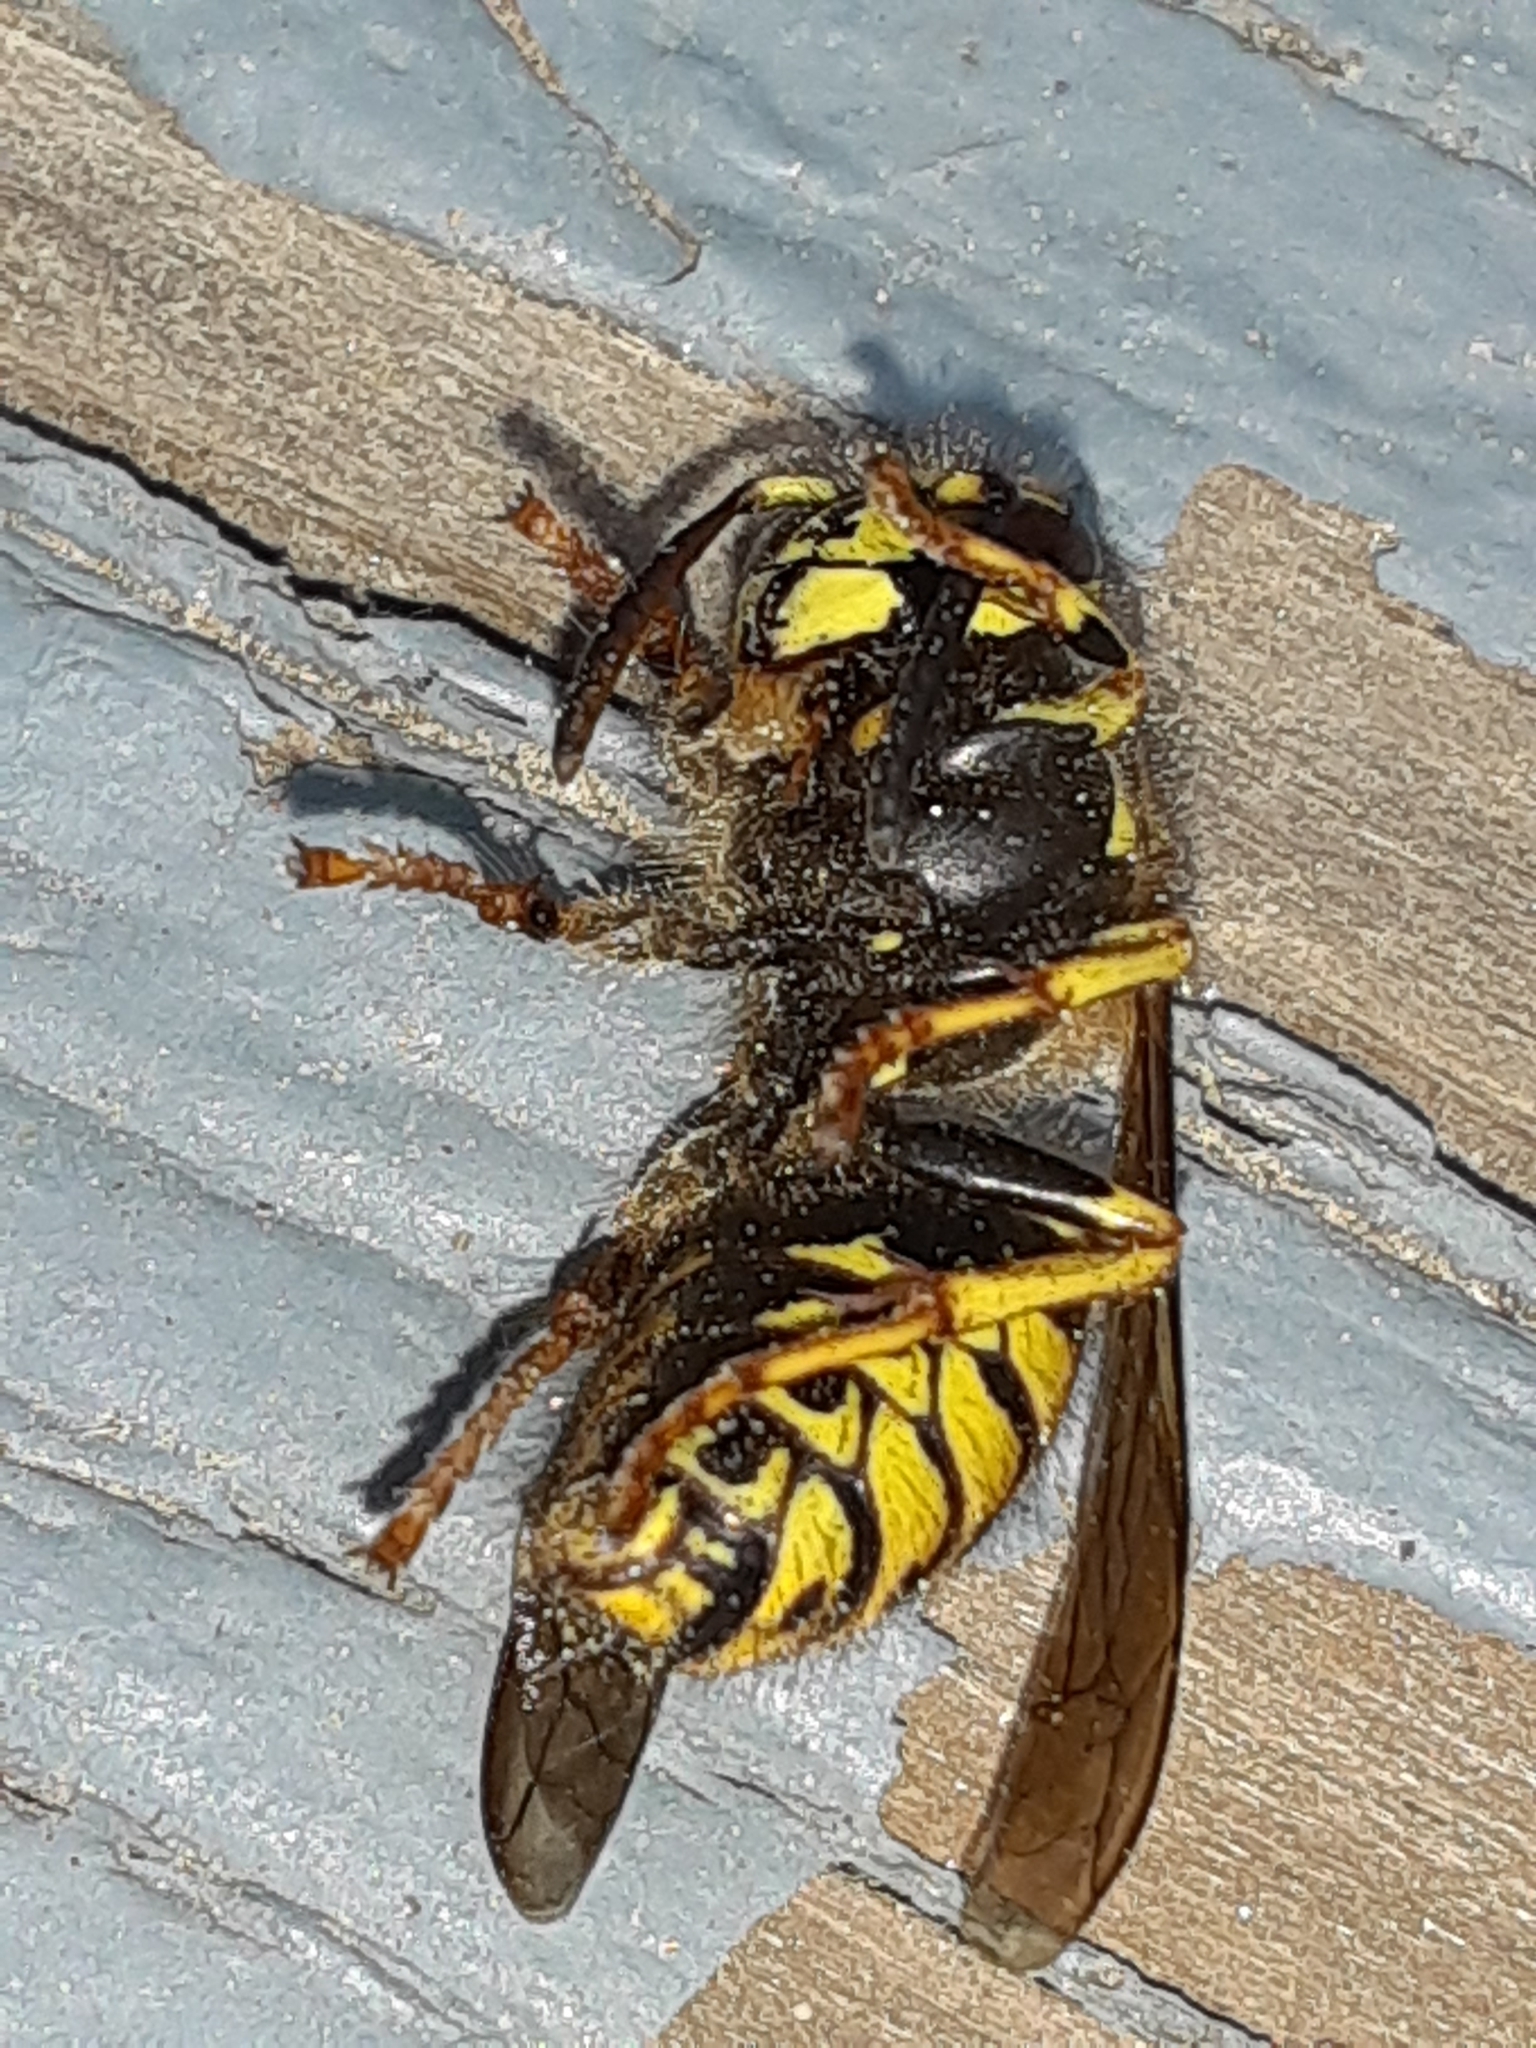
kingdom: Animalia
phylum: Arthropoda
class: Insecta
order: Hymenoptera
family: Vespidae
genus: Dolichovespula
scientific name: Dolichovespula arenaria
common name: Aerial yellowjacket
